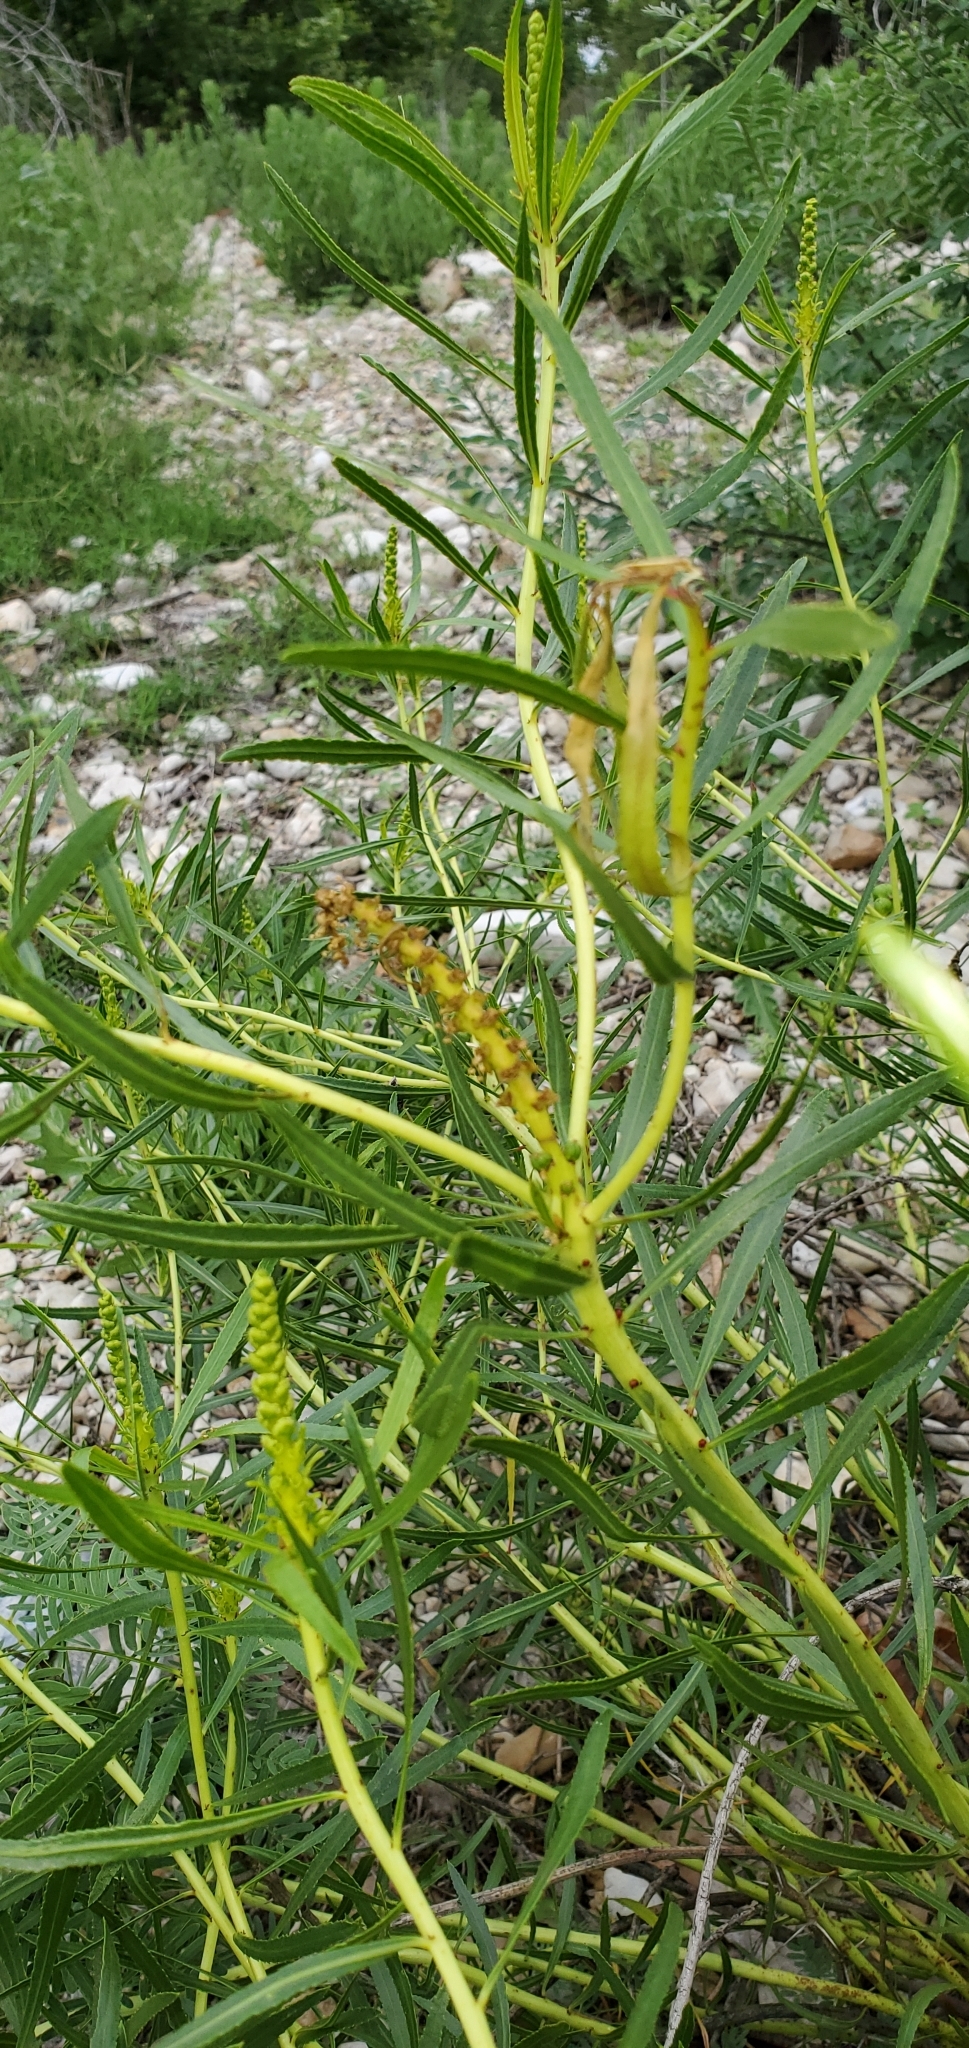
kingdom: Plantae
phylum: Tracheophyta
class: Magnoliopsida
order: Malpighiales
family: Euphorbiaceae
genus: Stillingia
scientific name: Stillingia texana
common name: Texas stillingia
